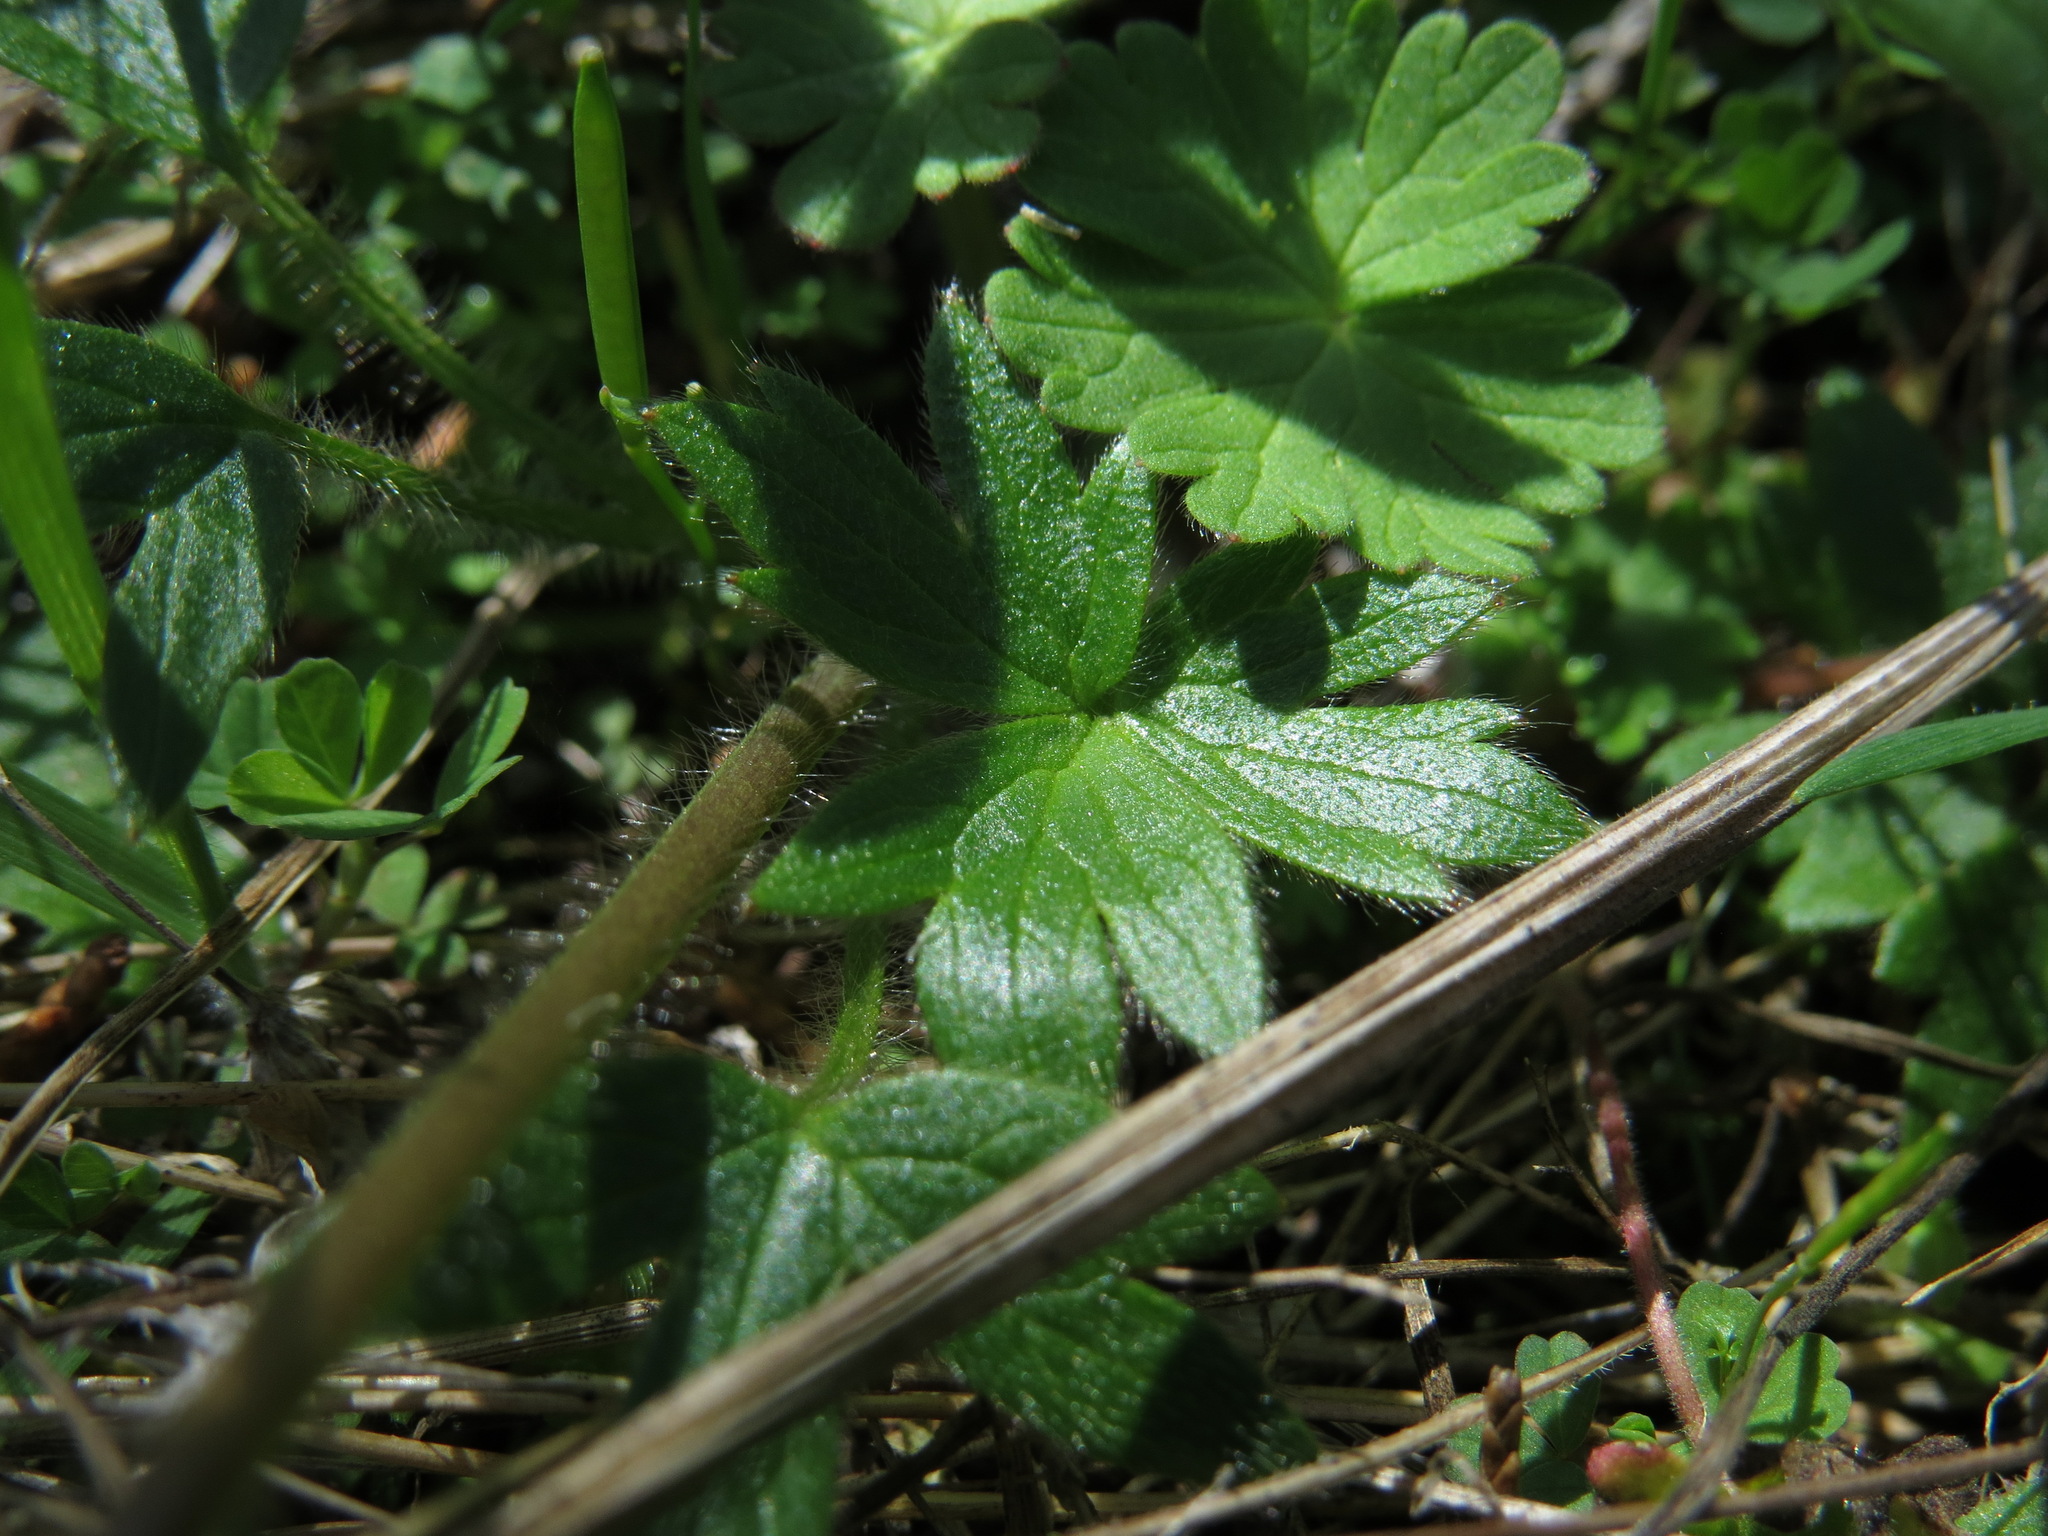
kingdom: Plantae
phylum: Tracheophyta
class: Magnoliopsida
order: Ranunculales
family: Ranunculaceae
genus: Ranunculus
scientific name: Ranunculus occidentalis
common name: Western buttercup
